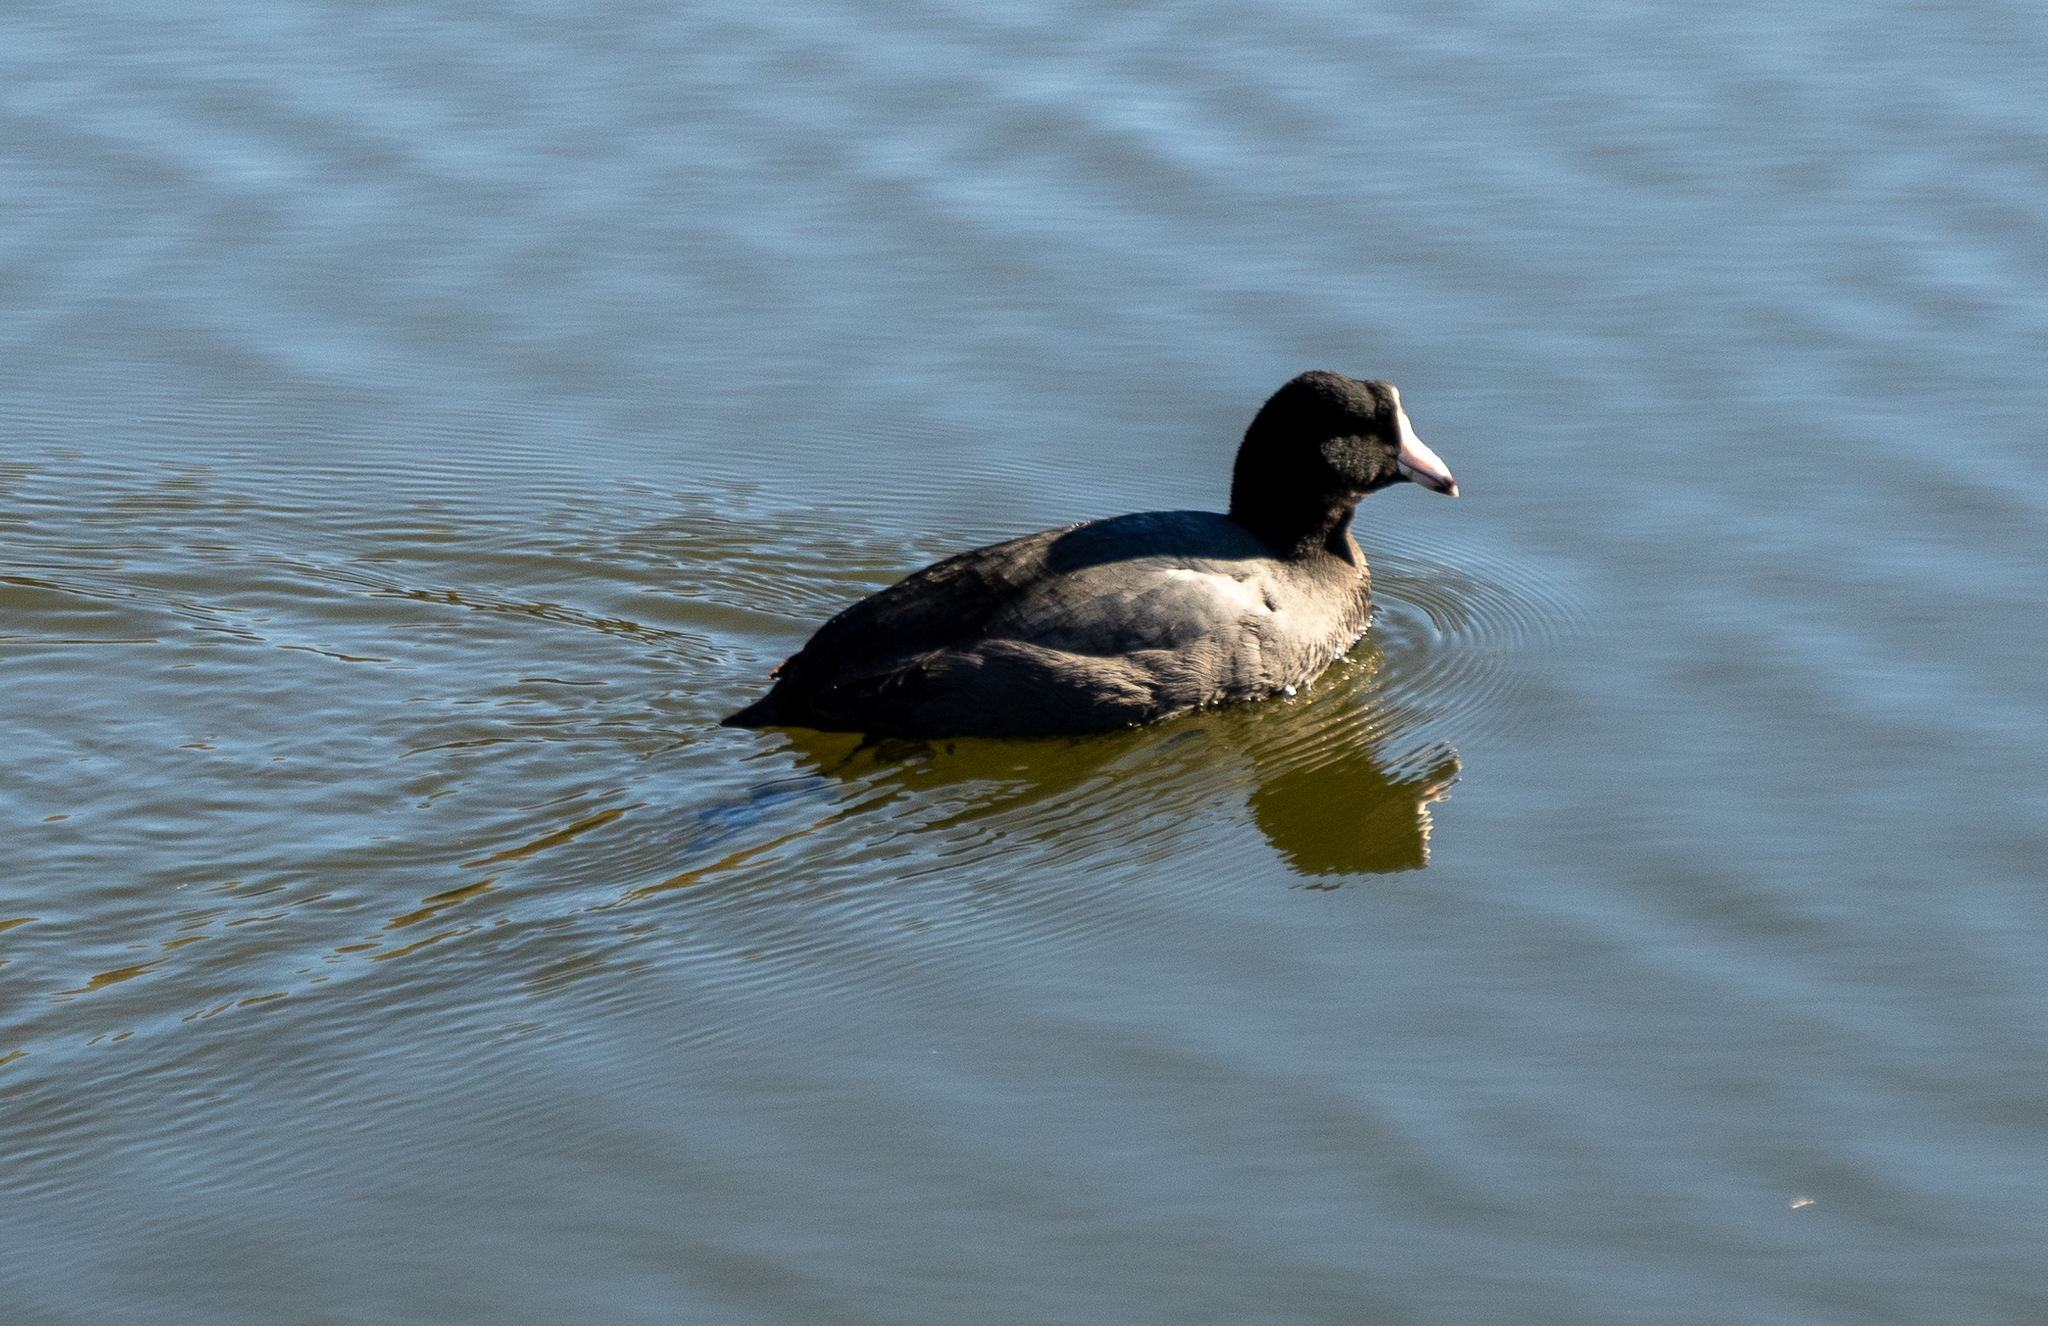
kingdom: Animalia
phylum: Chordata
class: Aves
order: Gruiformes
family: Rallidae
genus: Fulica
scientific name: Fulica americana
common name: American coot
